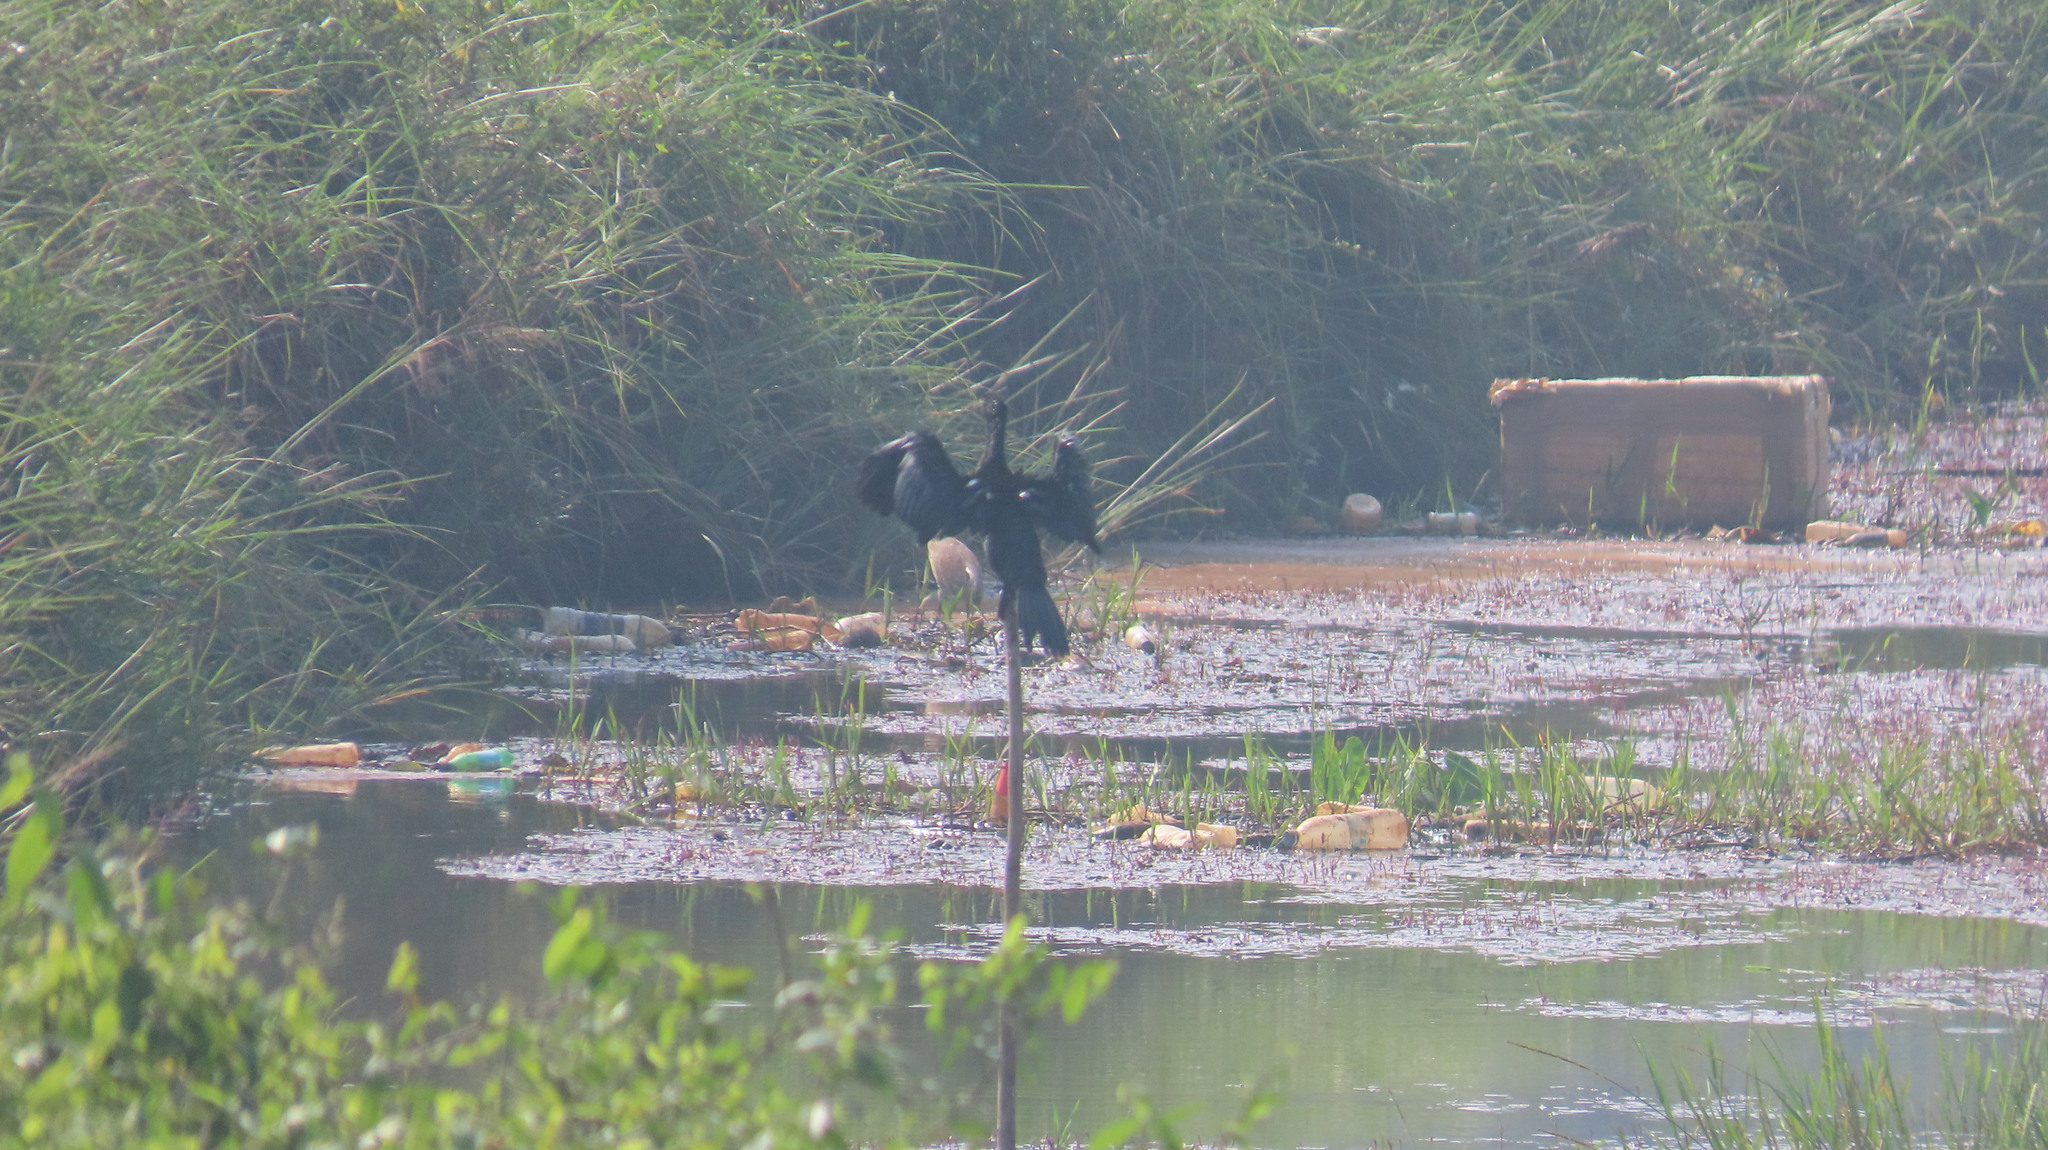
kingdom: Animalia
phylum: Chordata
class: Aves
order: Suliformes
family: Phalacrocoracidae
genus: Microcarbo
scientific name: Microcarbo niger
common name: Little cormorant
